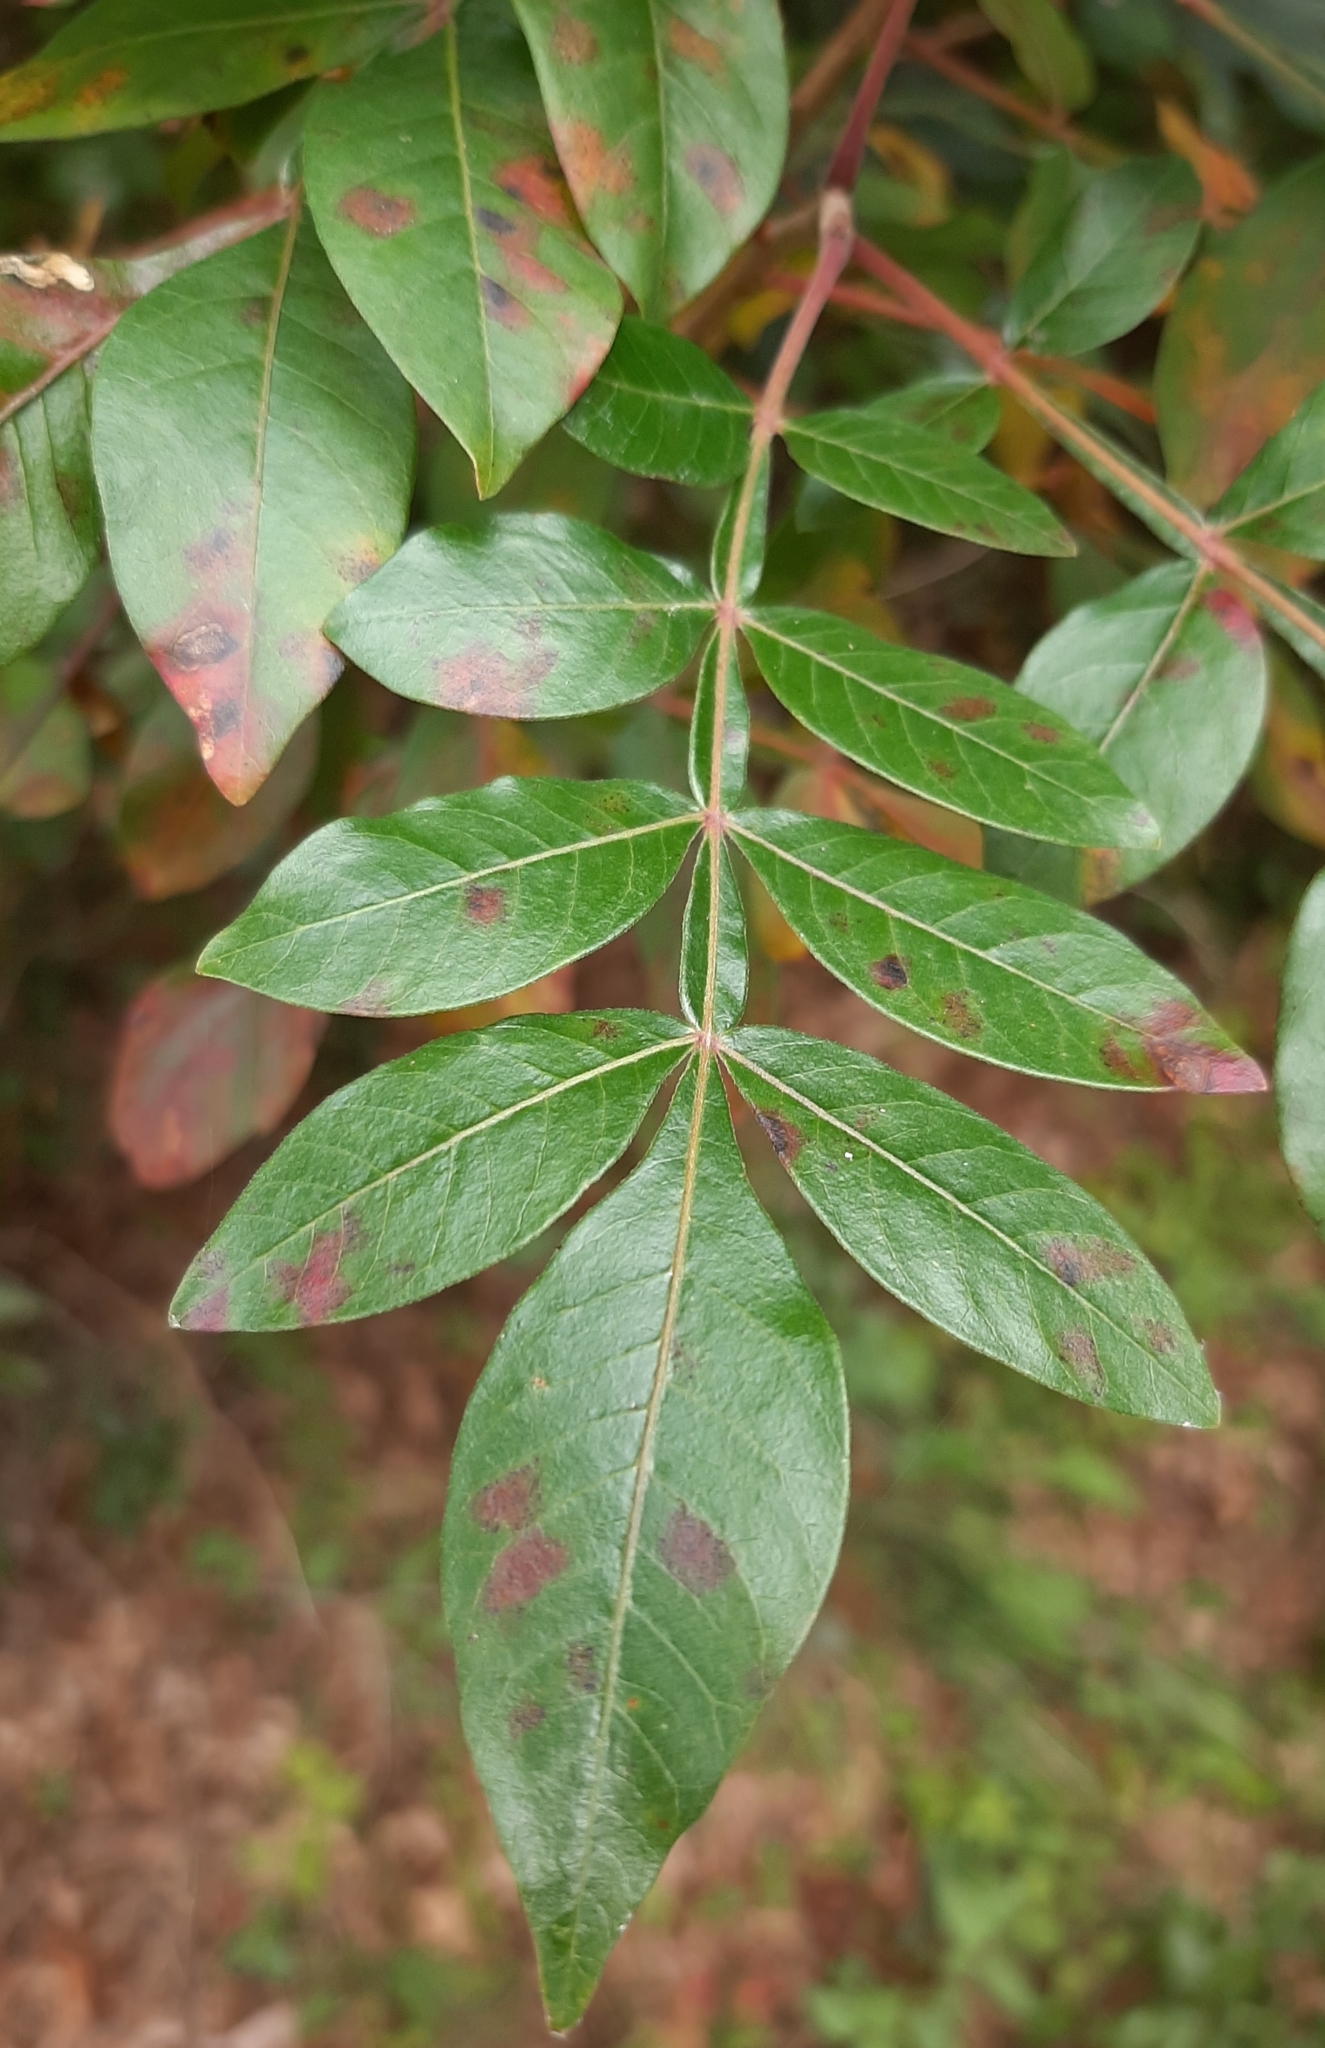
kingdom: Plantae
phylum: Tracheophyta
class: Magnoliopsida
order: Sapindales
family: Anacardiaceae
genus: Rhus
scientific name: Rhus copallina
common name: Shining sumac
